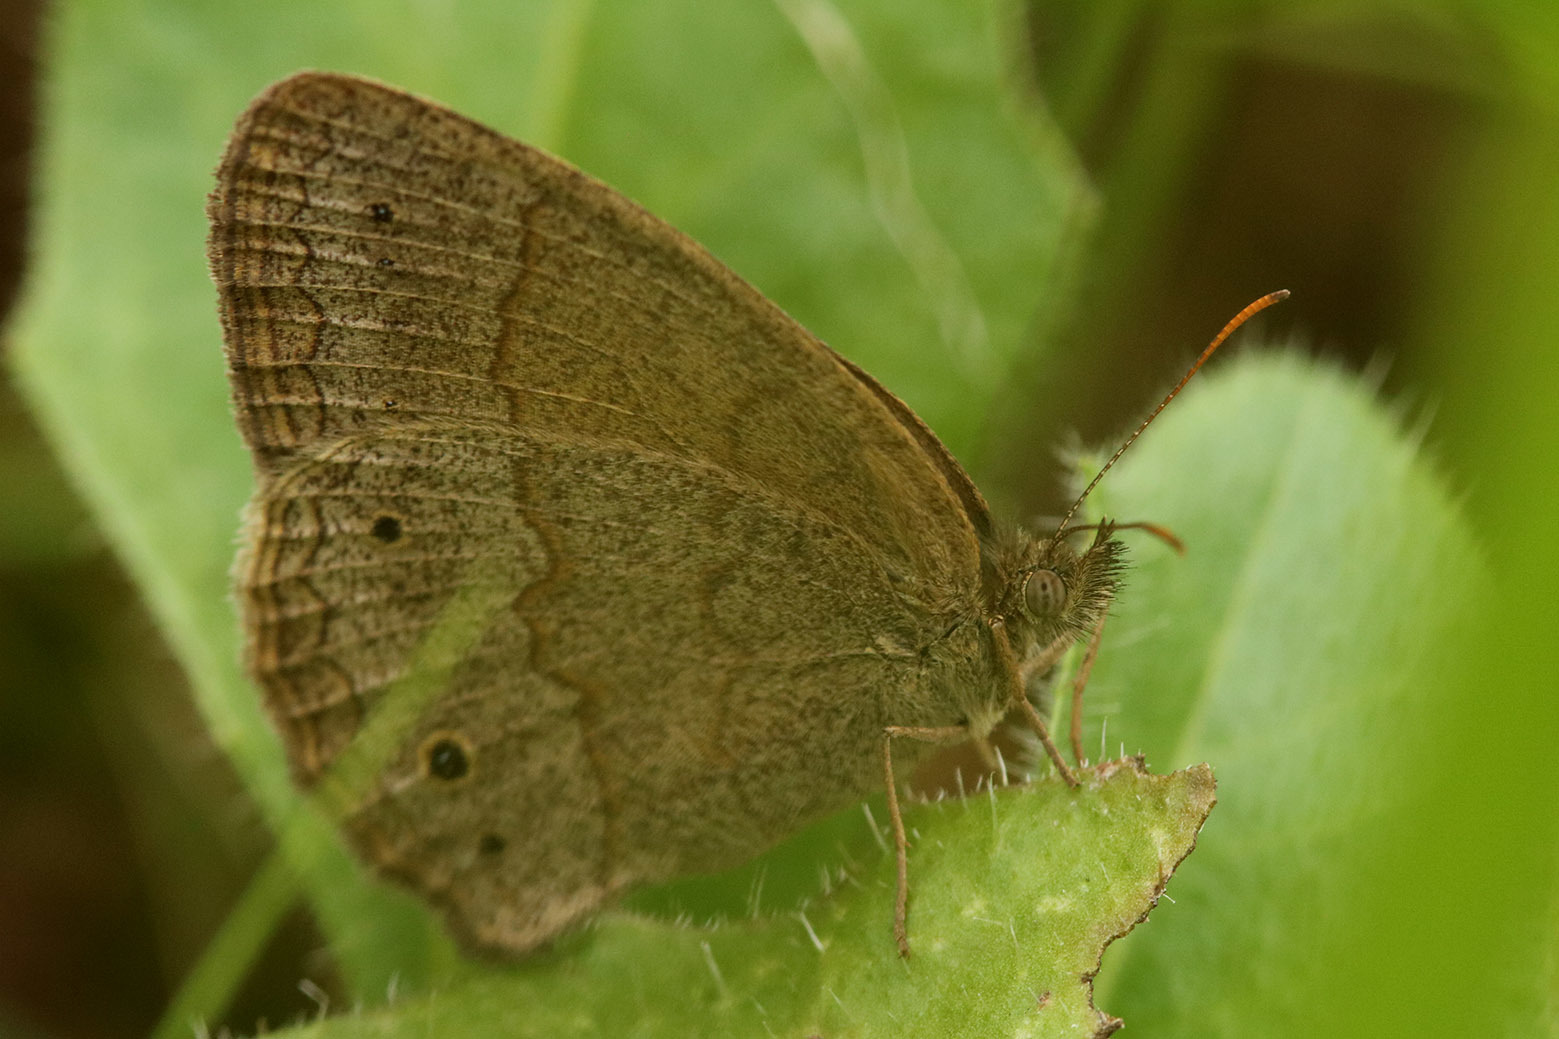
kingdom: Animalia
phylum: Arthropoda
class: Insecta
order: Lepidoptera
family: Nymphalidae
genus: Yphthimoides
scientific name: Yphthimoides celmis
